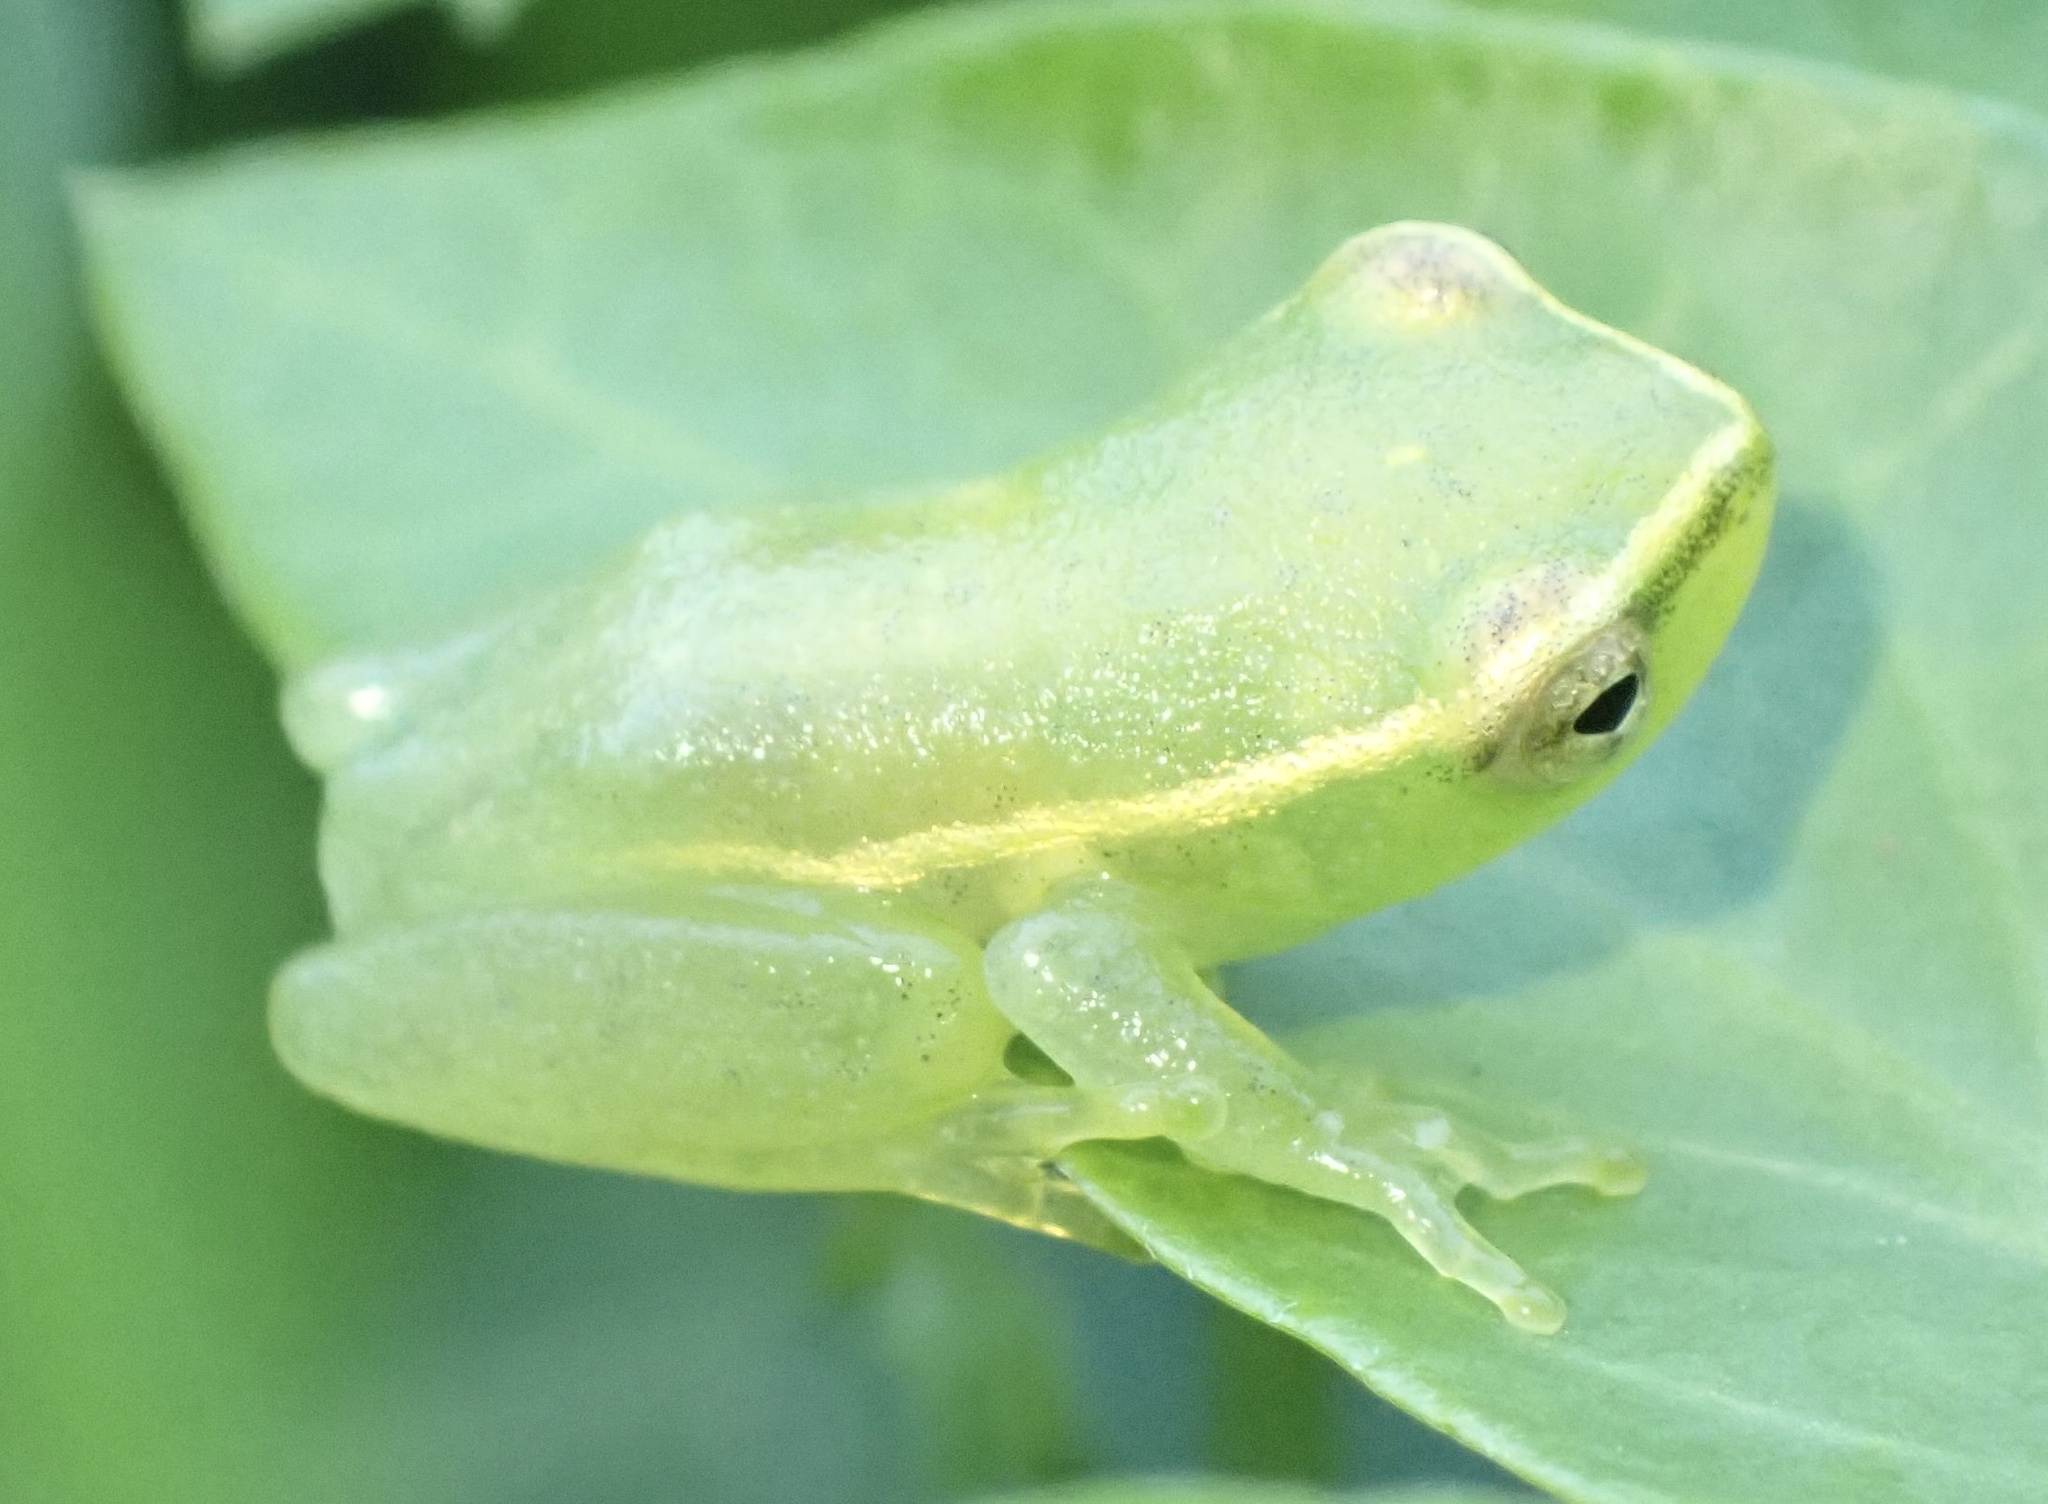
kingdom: Animalia
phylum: Chordata
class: Amphibia
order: Anura
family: Hyperoliidae
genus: Hyperolius
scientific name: Hyperolius pusillus
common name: Water lily reed frog
